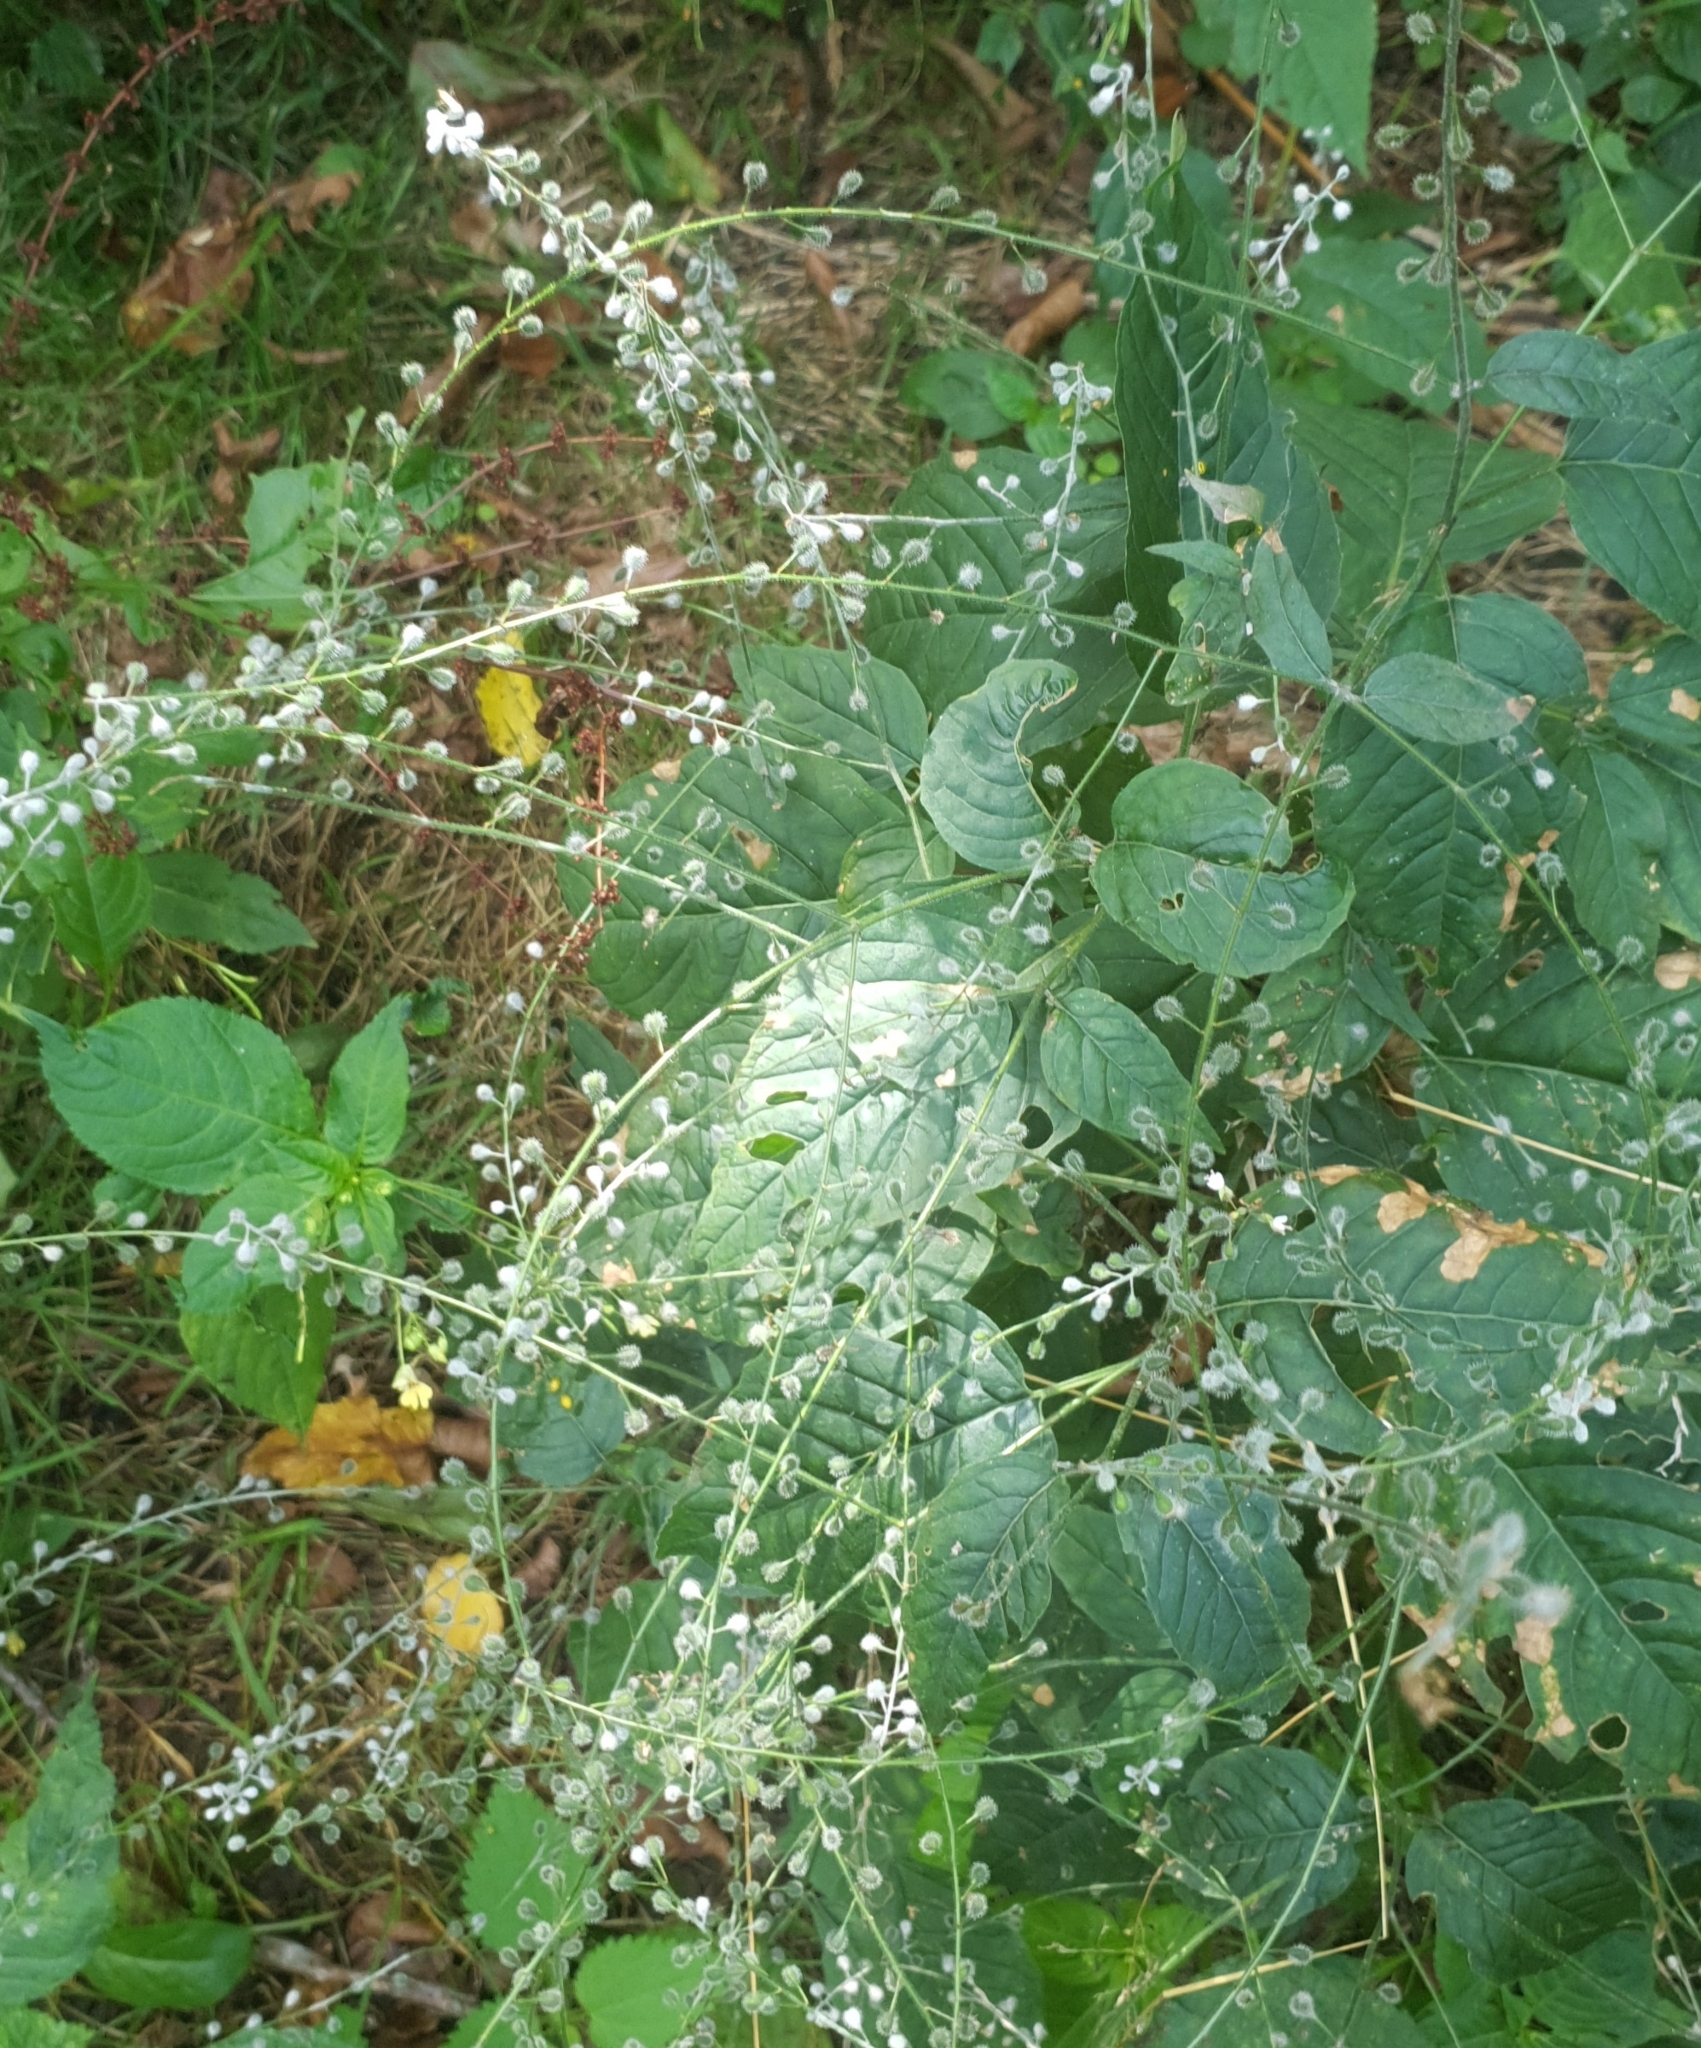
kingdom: Plantae
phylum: Tracheophyta
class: Magnoliopsida
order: Myrtales
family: Onagraceae
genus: Circaea
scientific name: Circaea lutetiana
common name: Enchanter's-nightshade
